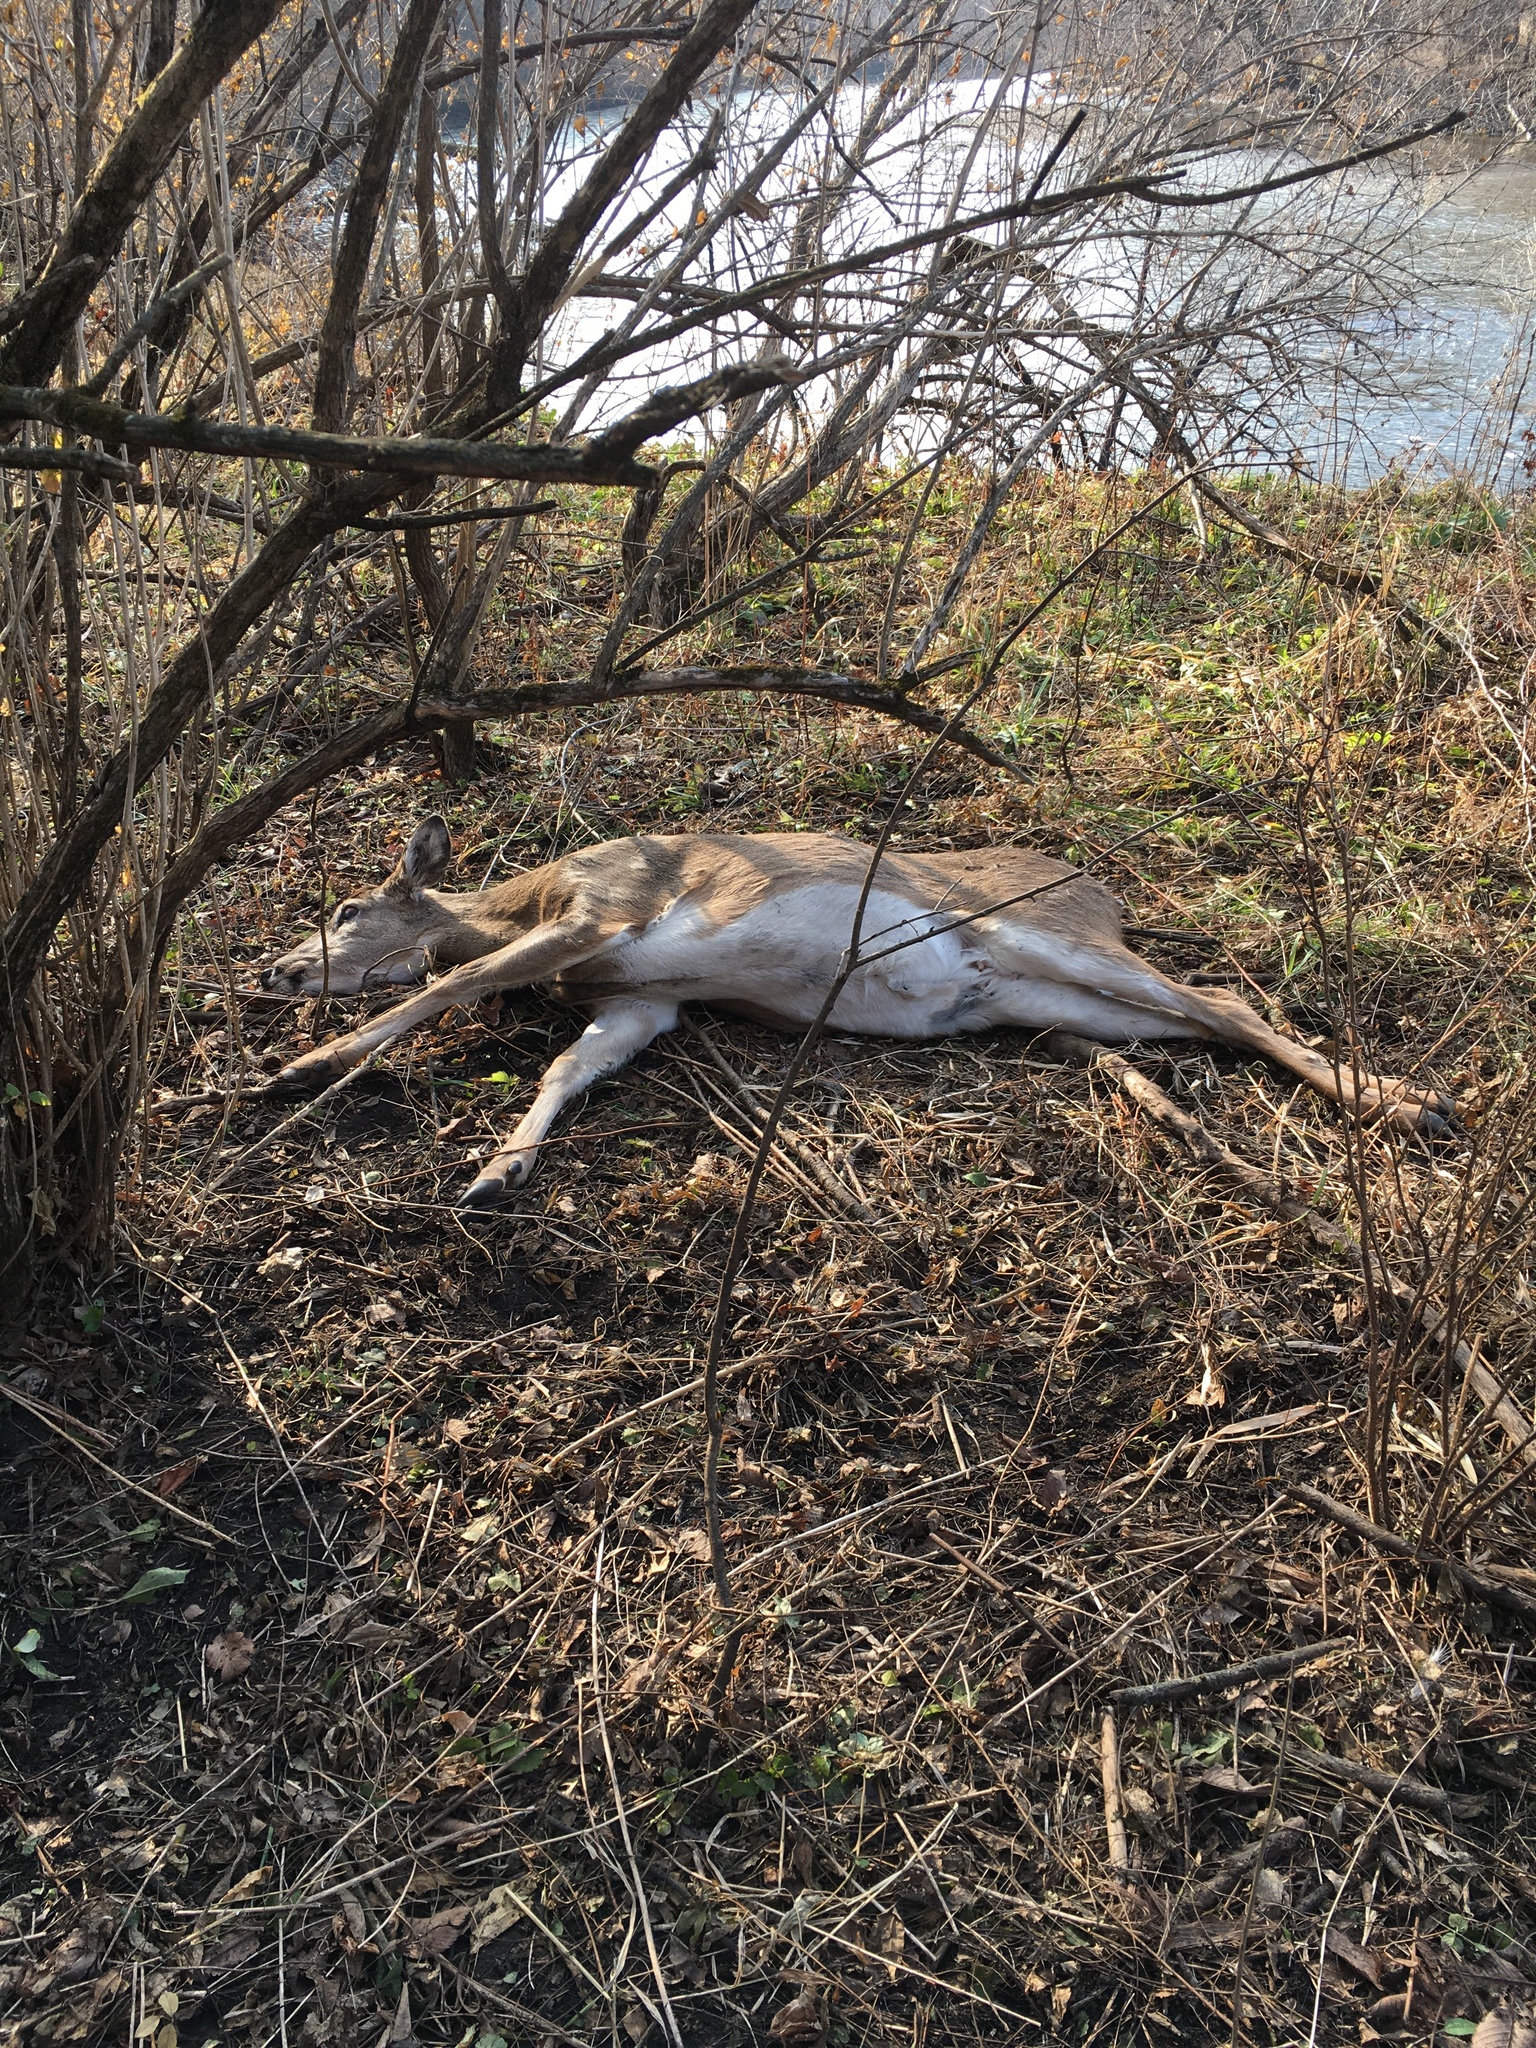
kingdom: Animalia
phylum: Chordata
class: Mammalia
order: Artiodactyla
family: Cervidae
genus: Odocoileus
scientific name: Odocoileus virginianus
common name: White-tailed deer
